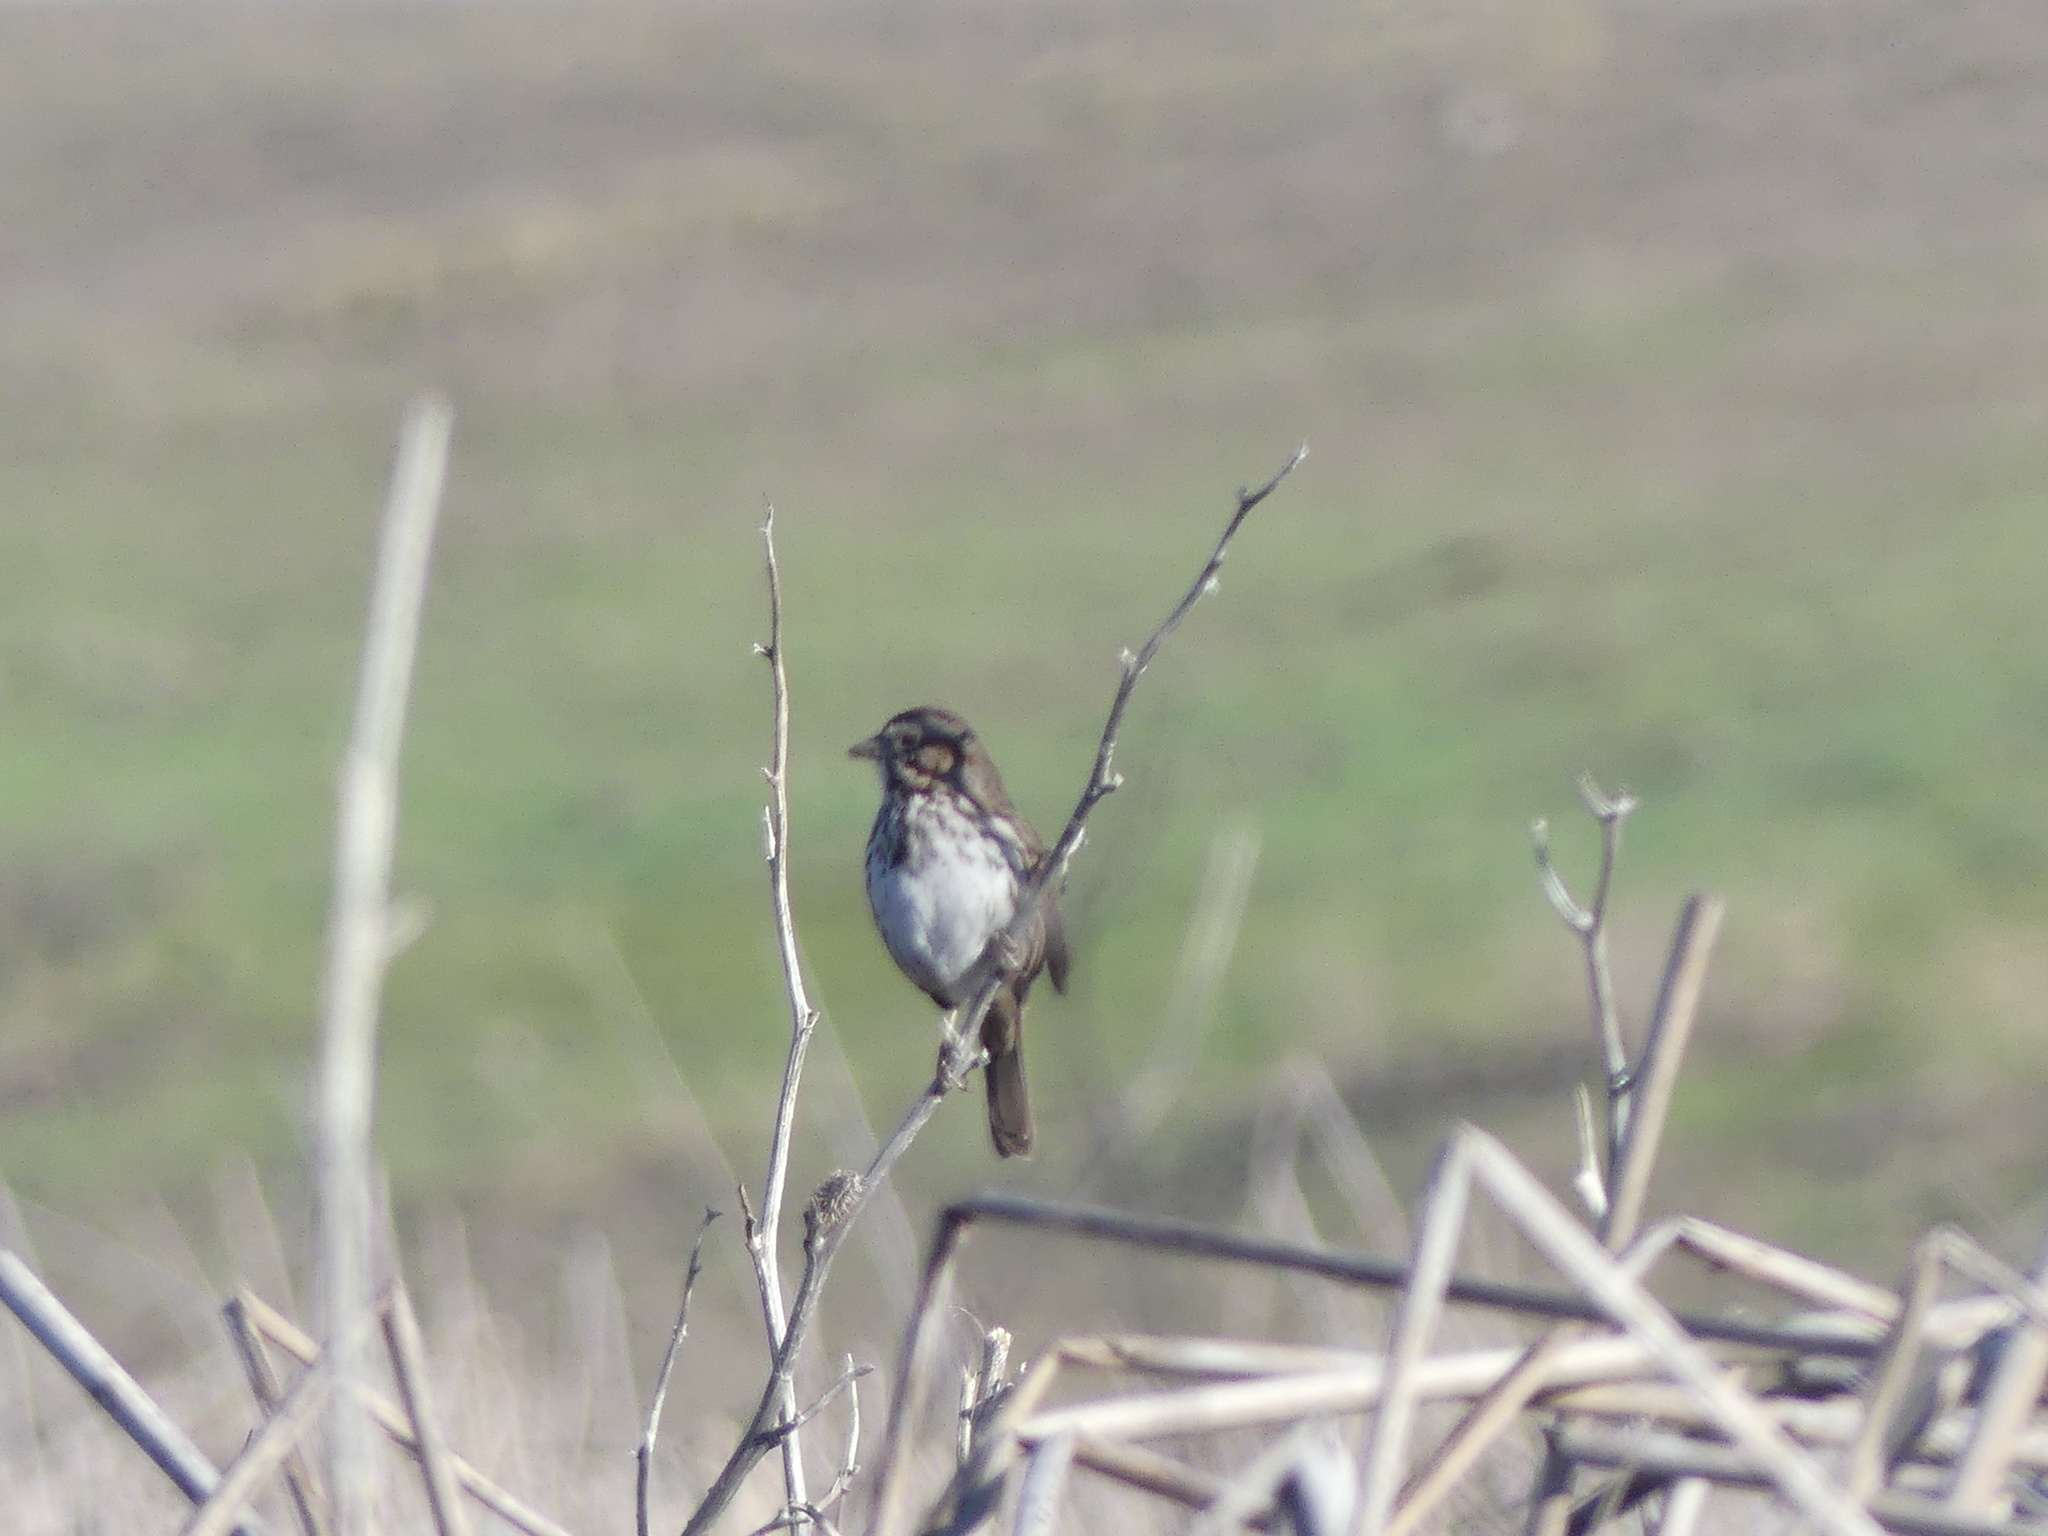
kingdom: Animalia
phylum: Chordata
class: Aves
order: Passeriformes
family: Passerellidae
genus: Melospiza
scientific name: Melospiza melodia
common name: Song sparrow
